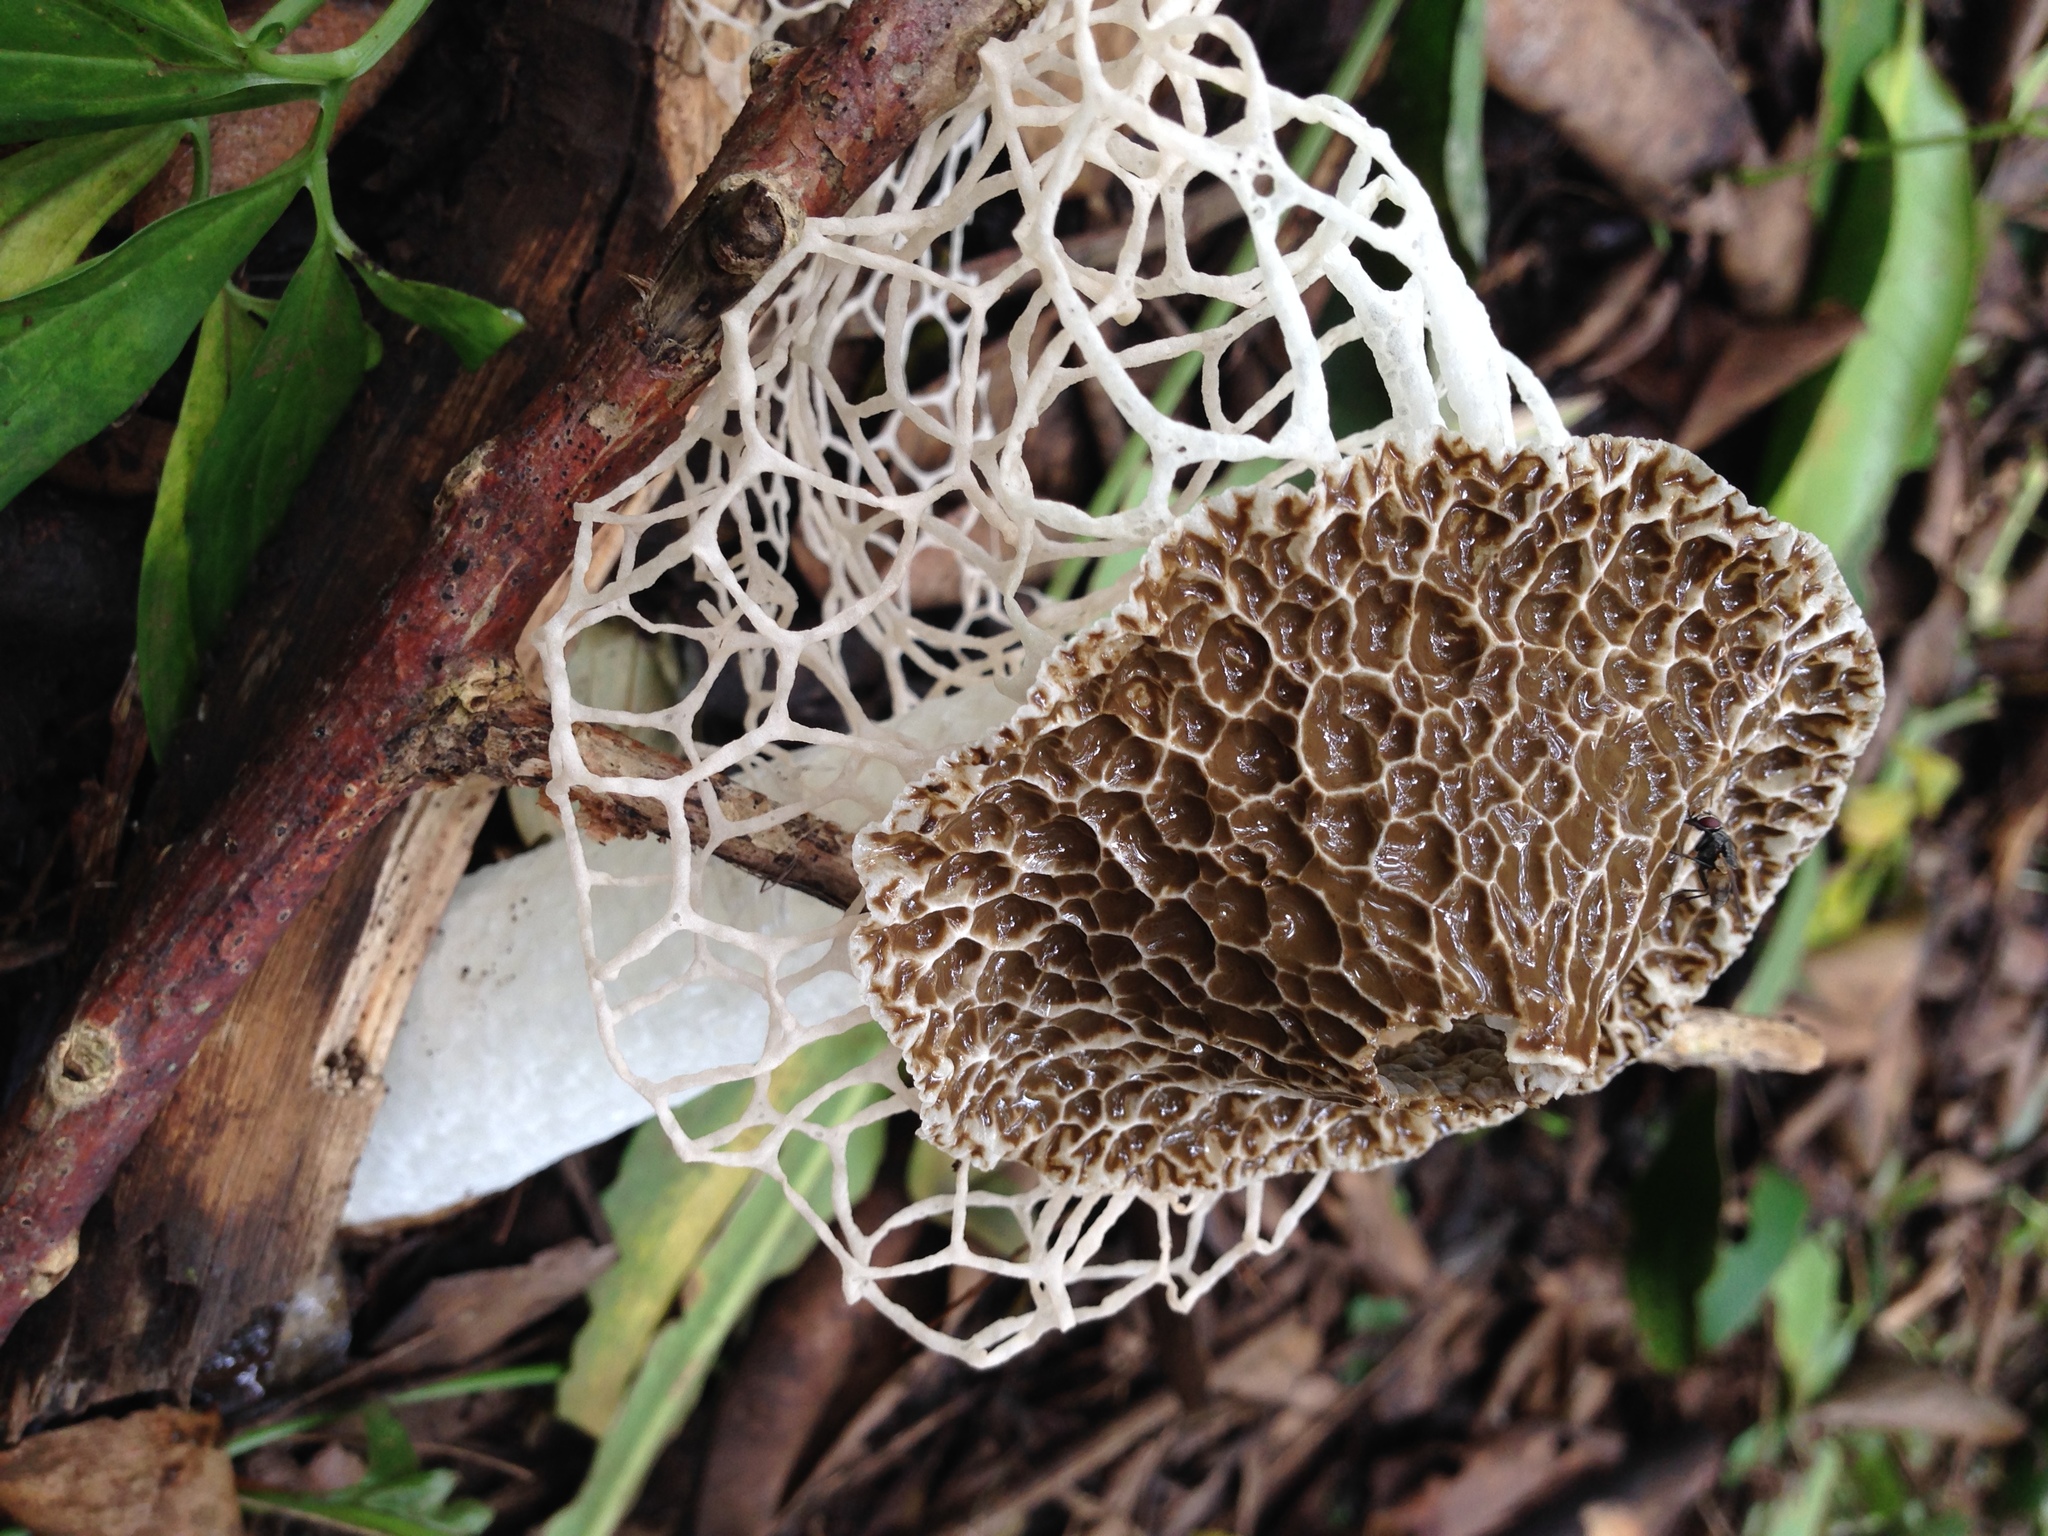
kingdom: Fungi
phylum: Basidiomycota
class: Agaricomycetes
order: Phallales
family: Phallaceae
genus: Phallus
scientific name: Phallus indusiatus
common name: Bridal veil stinkhorn
